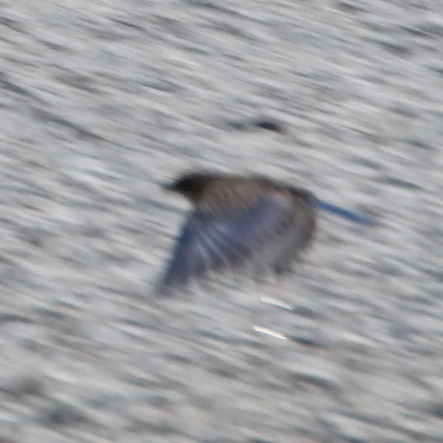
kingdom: Animalia
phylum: Chordata
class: Aves
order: Passeriformes
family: Turdidae
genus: Sialia
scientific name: Sialia sialis
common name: Eastern bluebird
